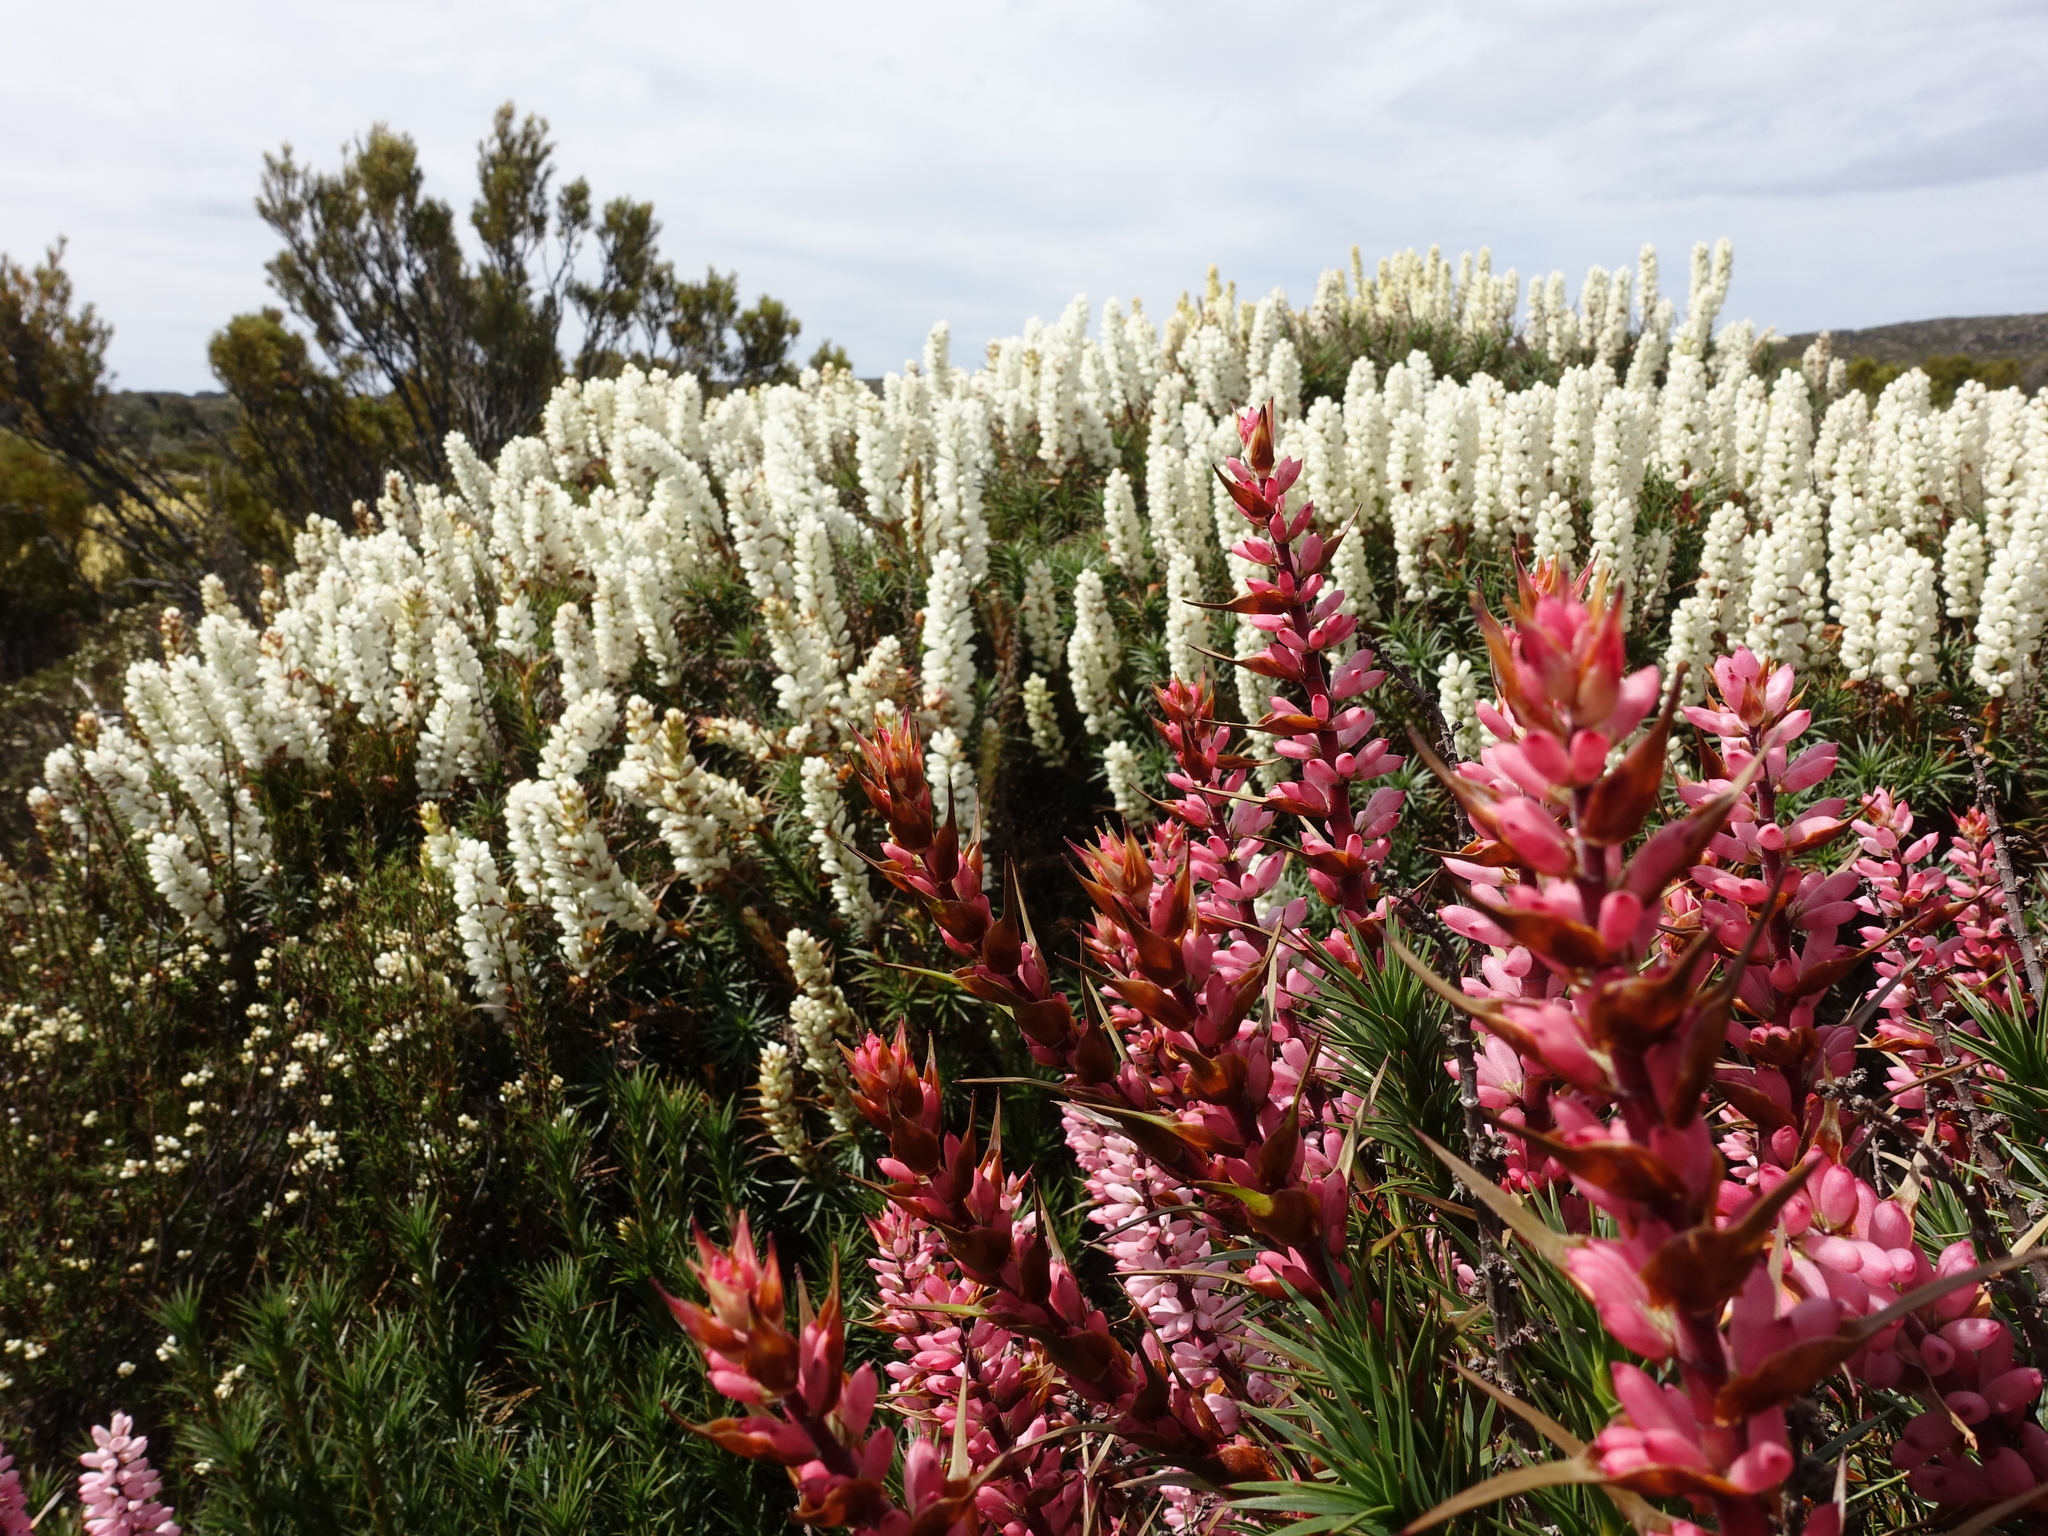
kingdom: Plantae
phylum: Tracheophyta
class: Magnoliopsida
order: Ericales
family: Ericaceae
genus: Dracophyllum
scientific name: Dracophyllum persistentifolium
